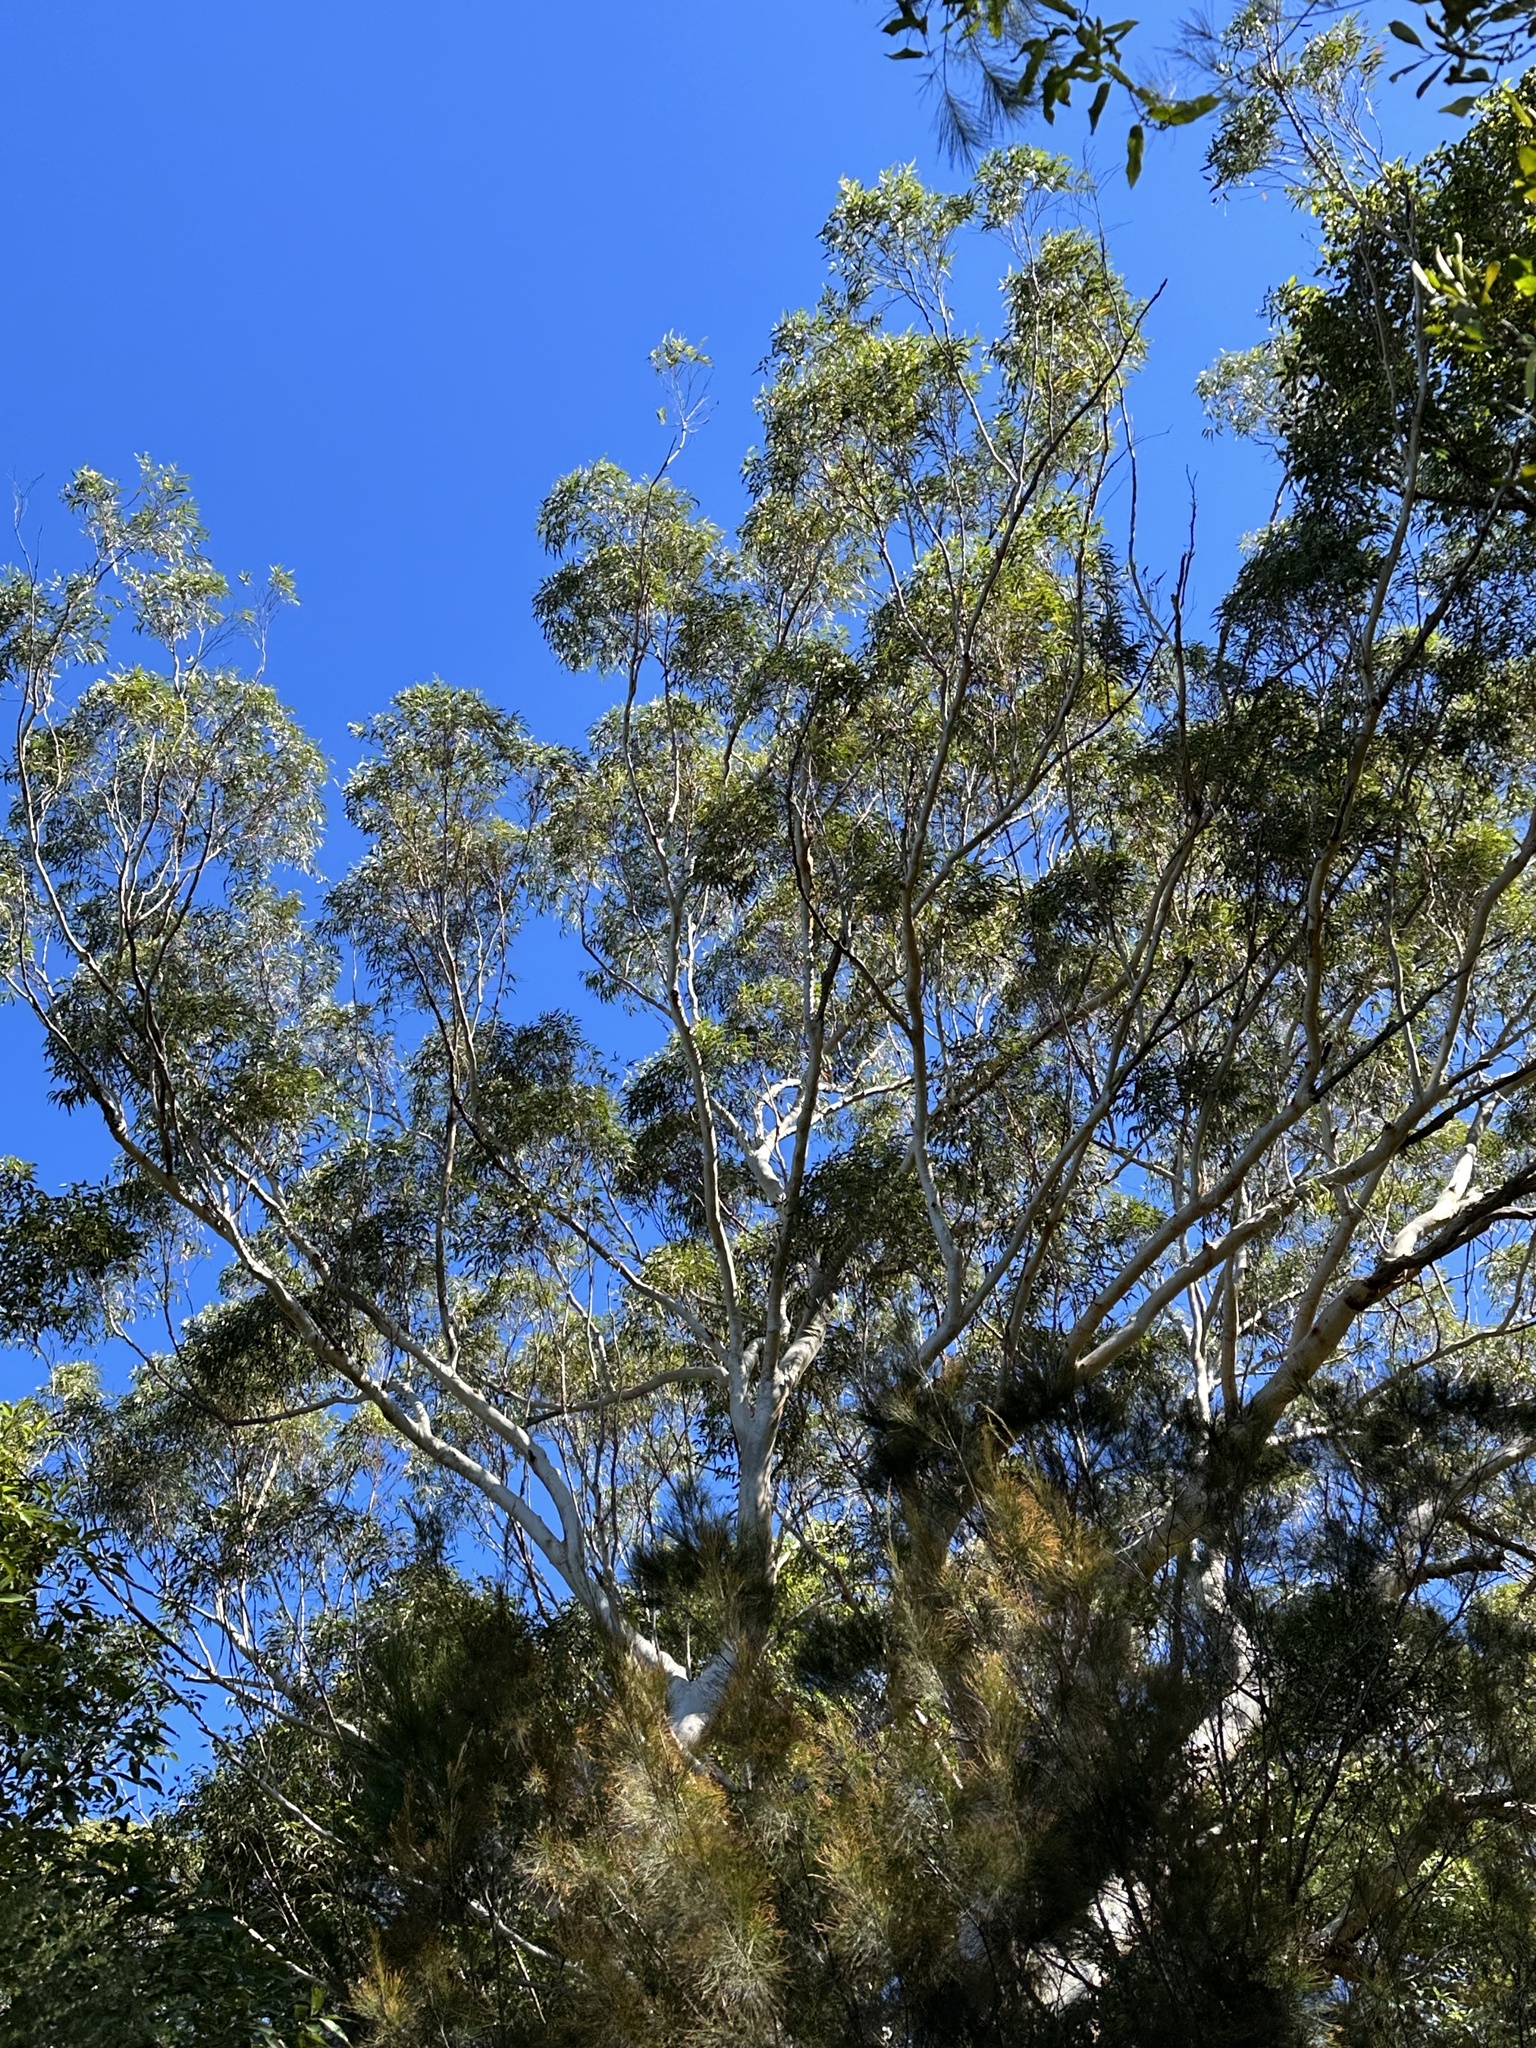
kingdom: Plantae
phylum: Tracheophyta
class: Magnoliopsida
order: Myrtales
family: Myrtaceae
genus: Eucalyptus
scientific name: Eucalyptus pilularis
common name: Blackbutt
